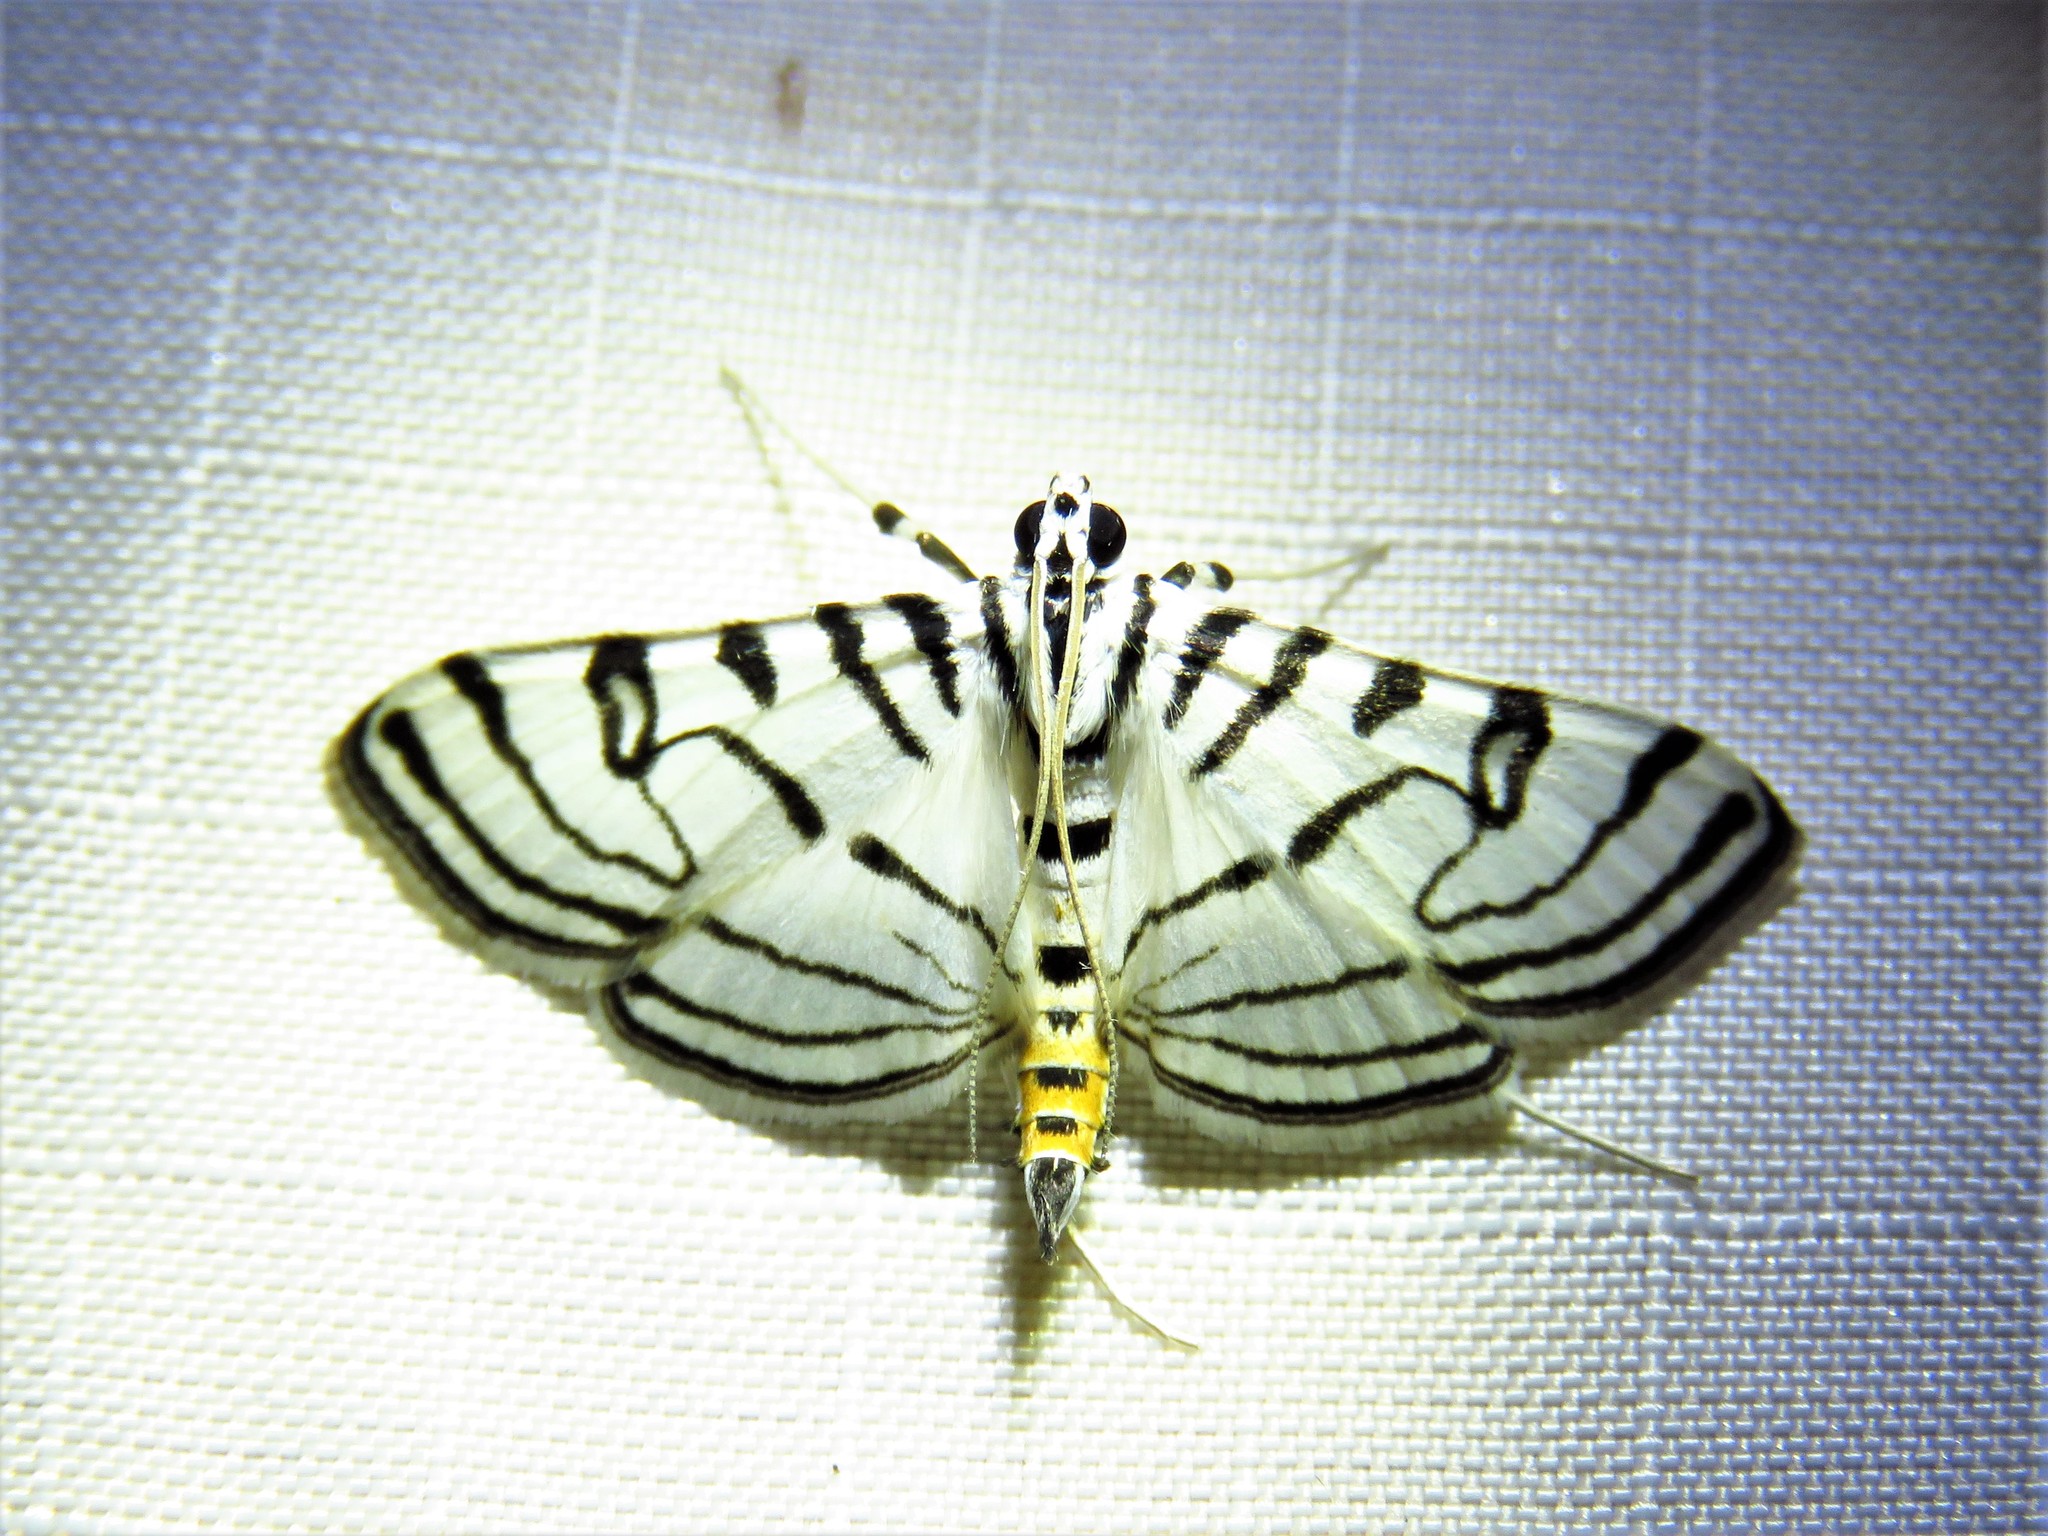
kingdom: Animalia
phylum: Arthropoda
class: Insecta
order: Lepidoptera
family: Crambidae
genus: Conchylodes
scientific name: Conchylodes ovulalis
